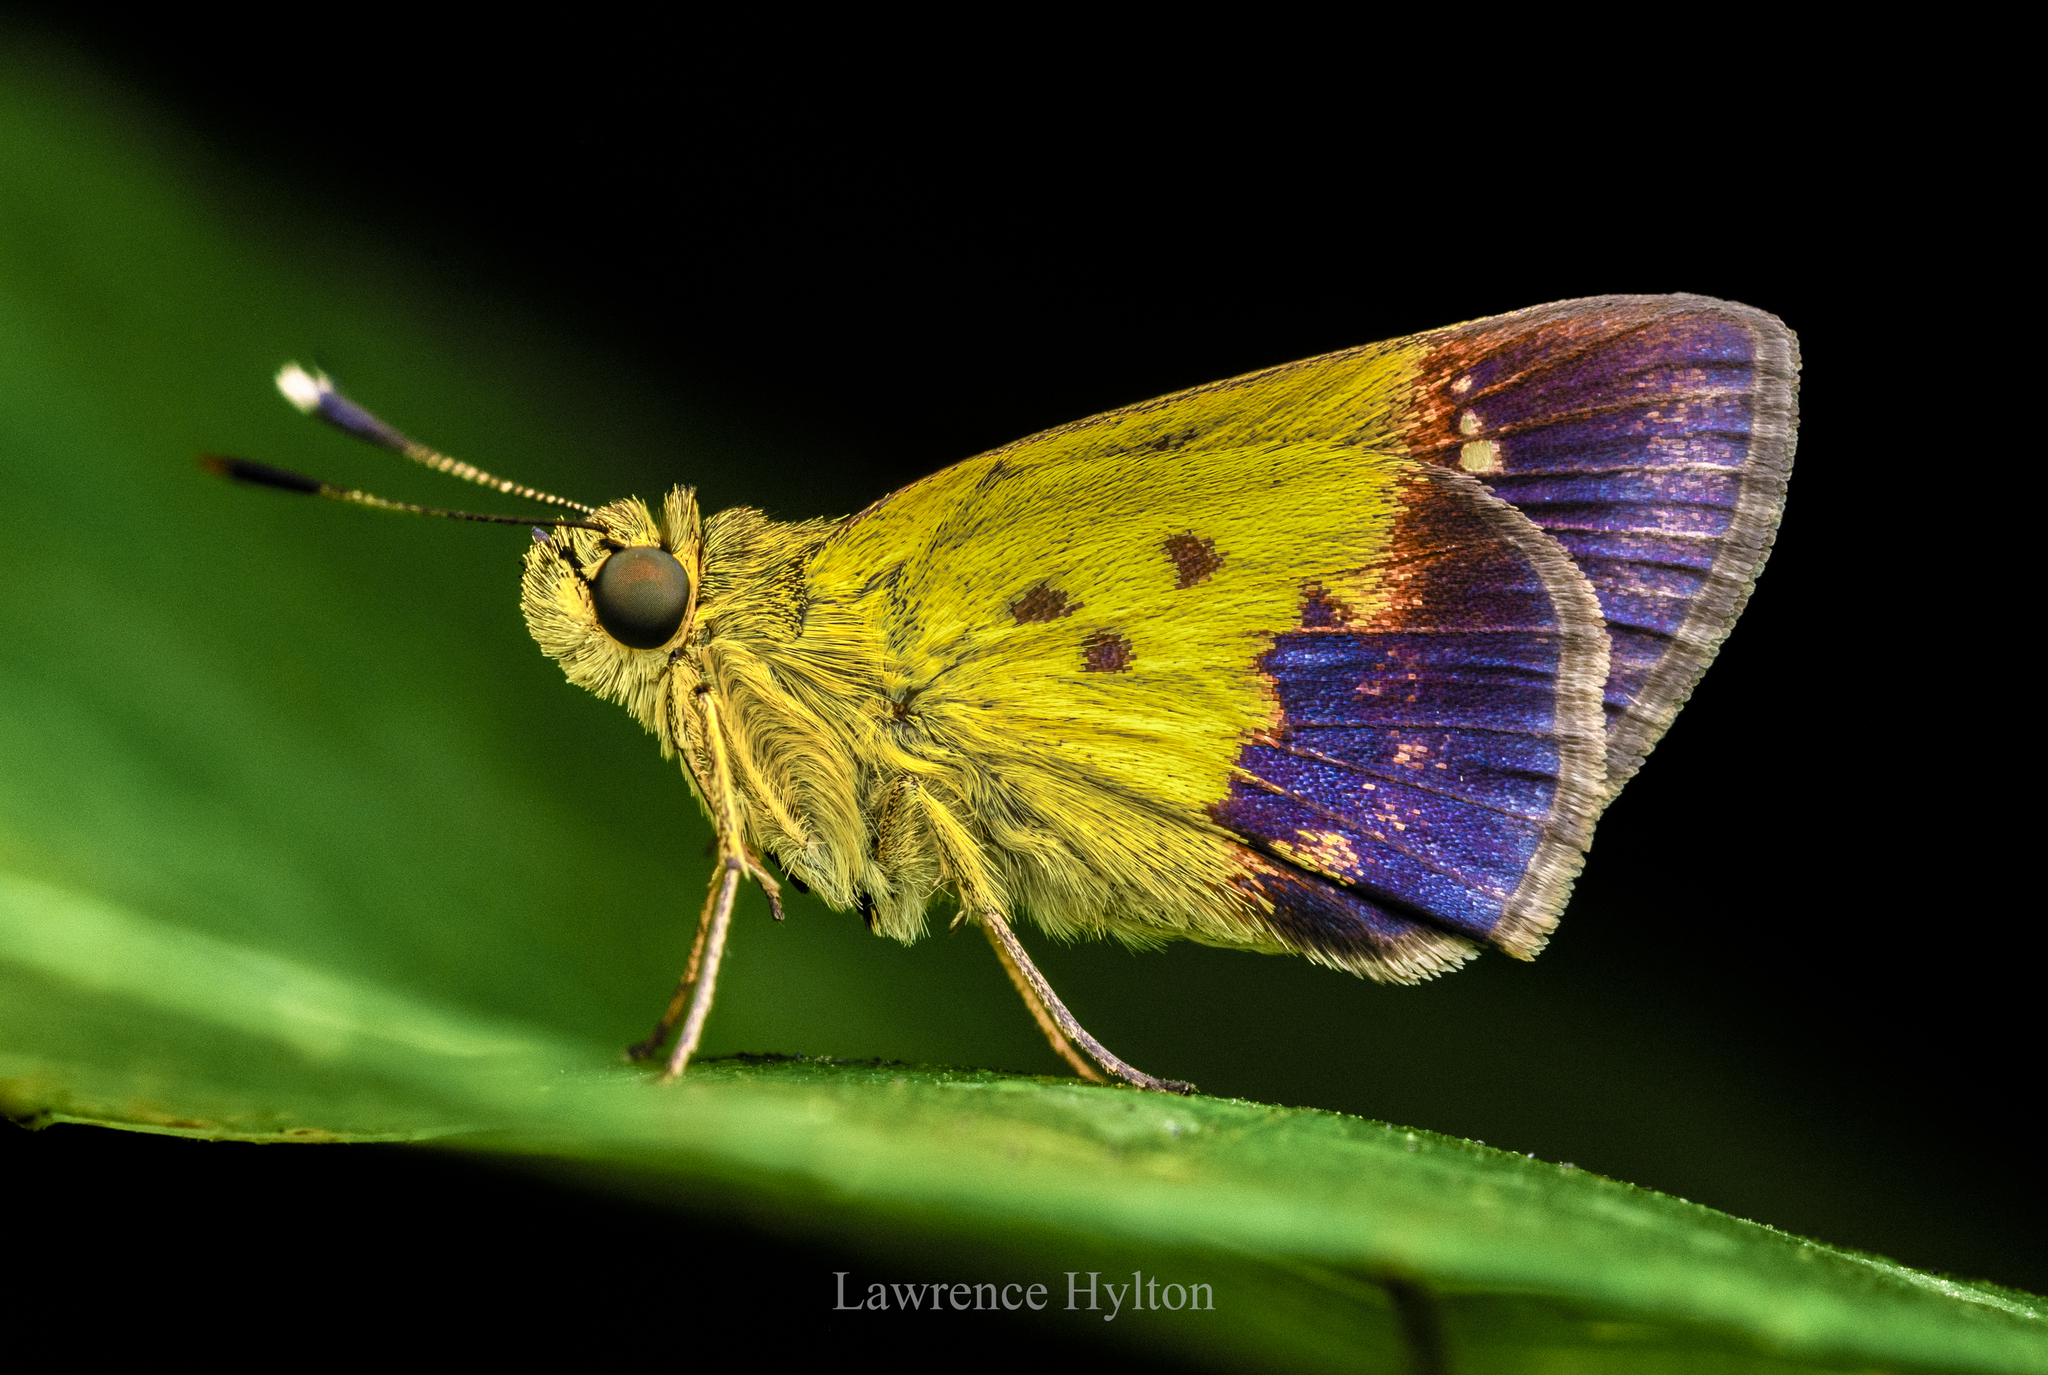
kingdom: Animalia
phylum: Arthropoda
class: Insecta
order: Lepidoptera
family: Hesperiidae
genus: Zographetus
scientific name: Zographetus satwa
